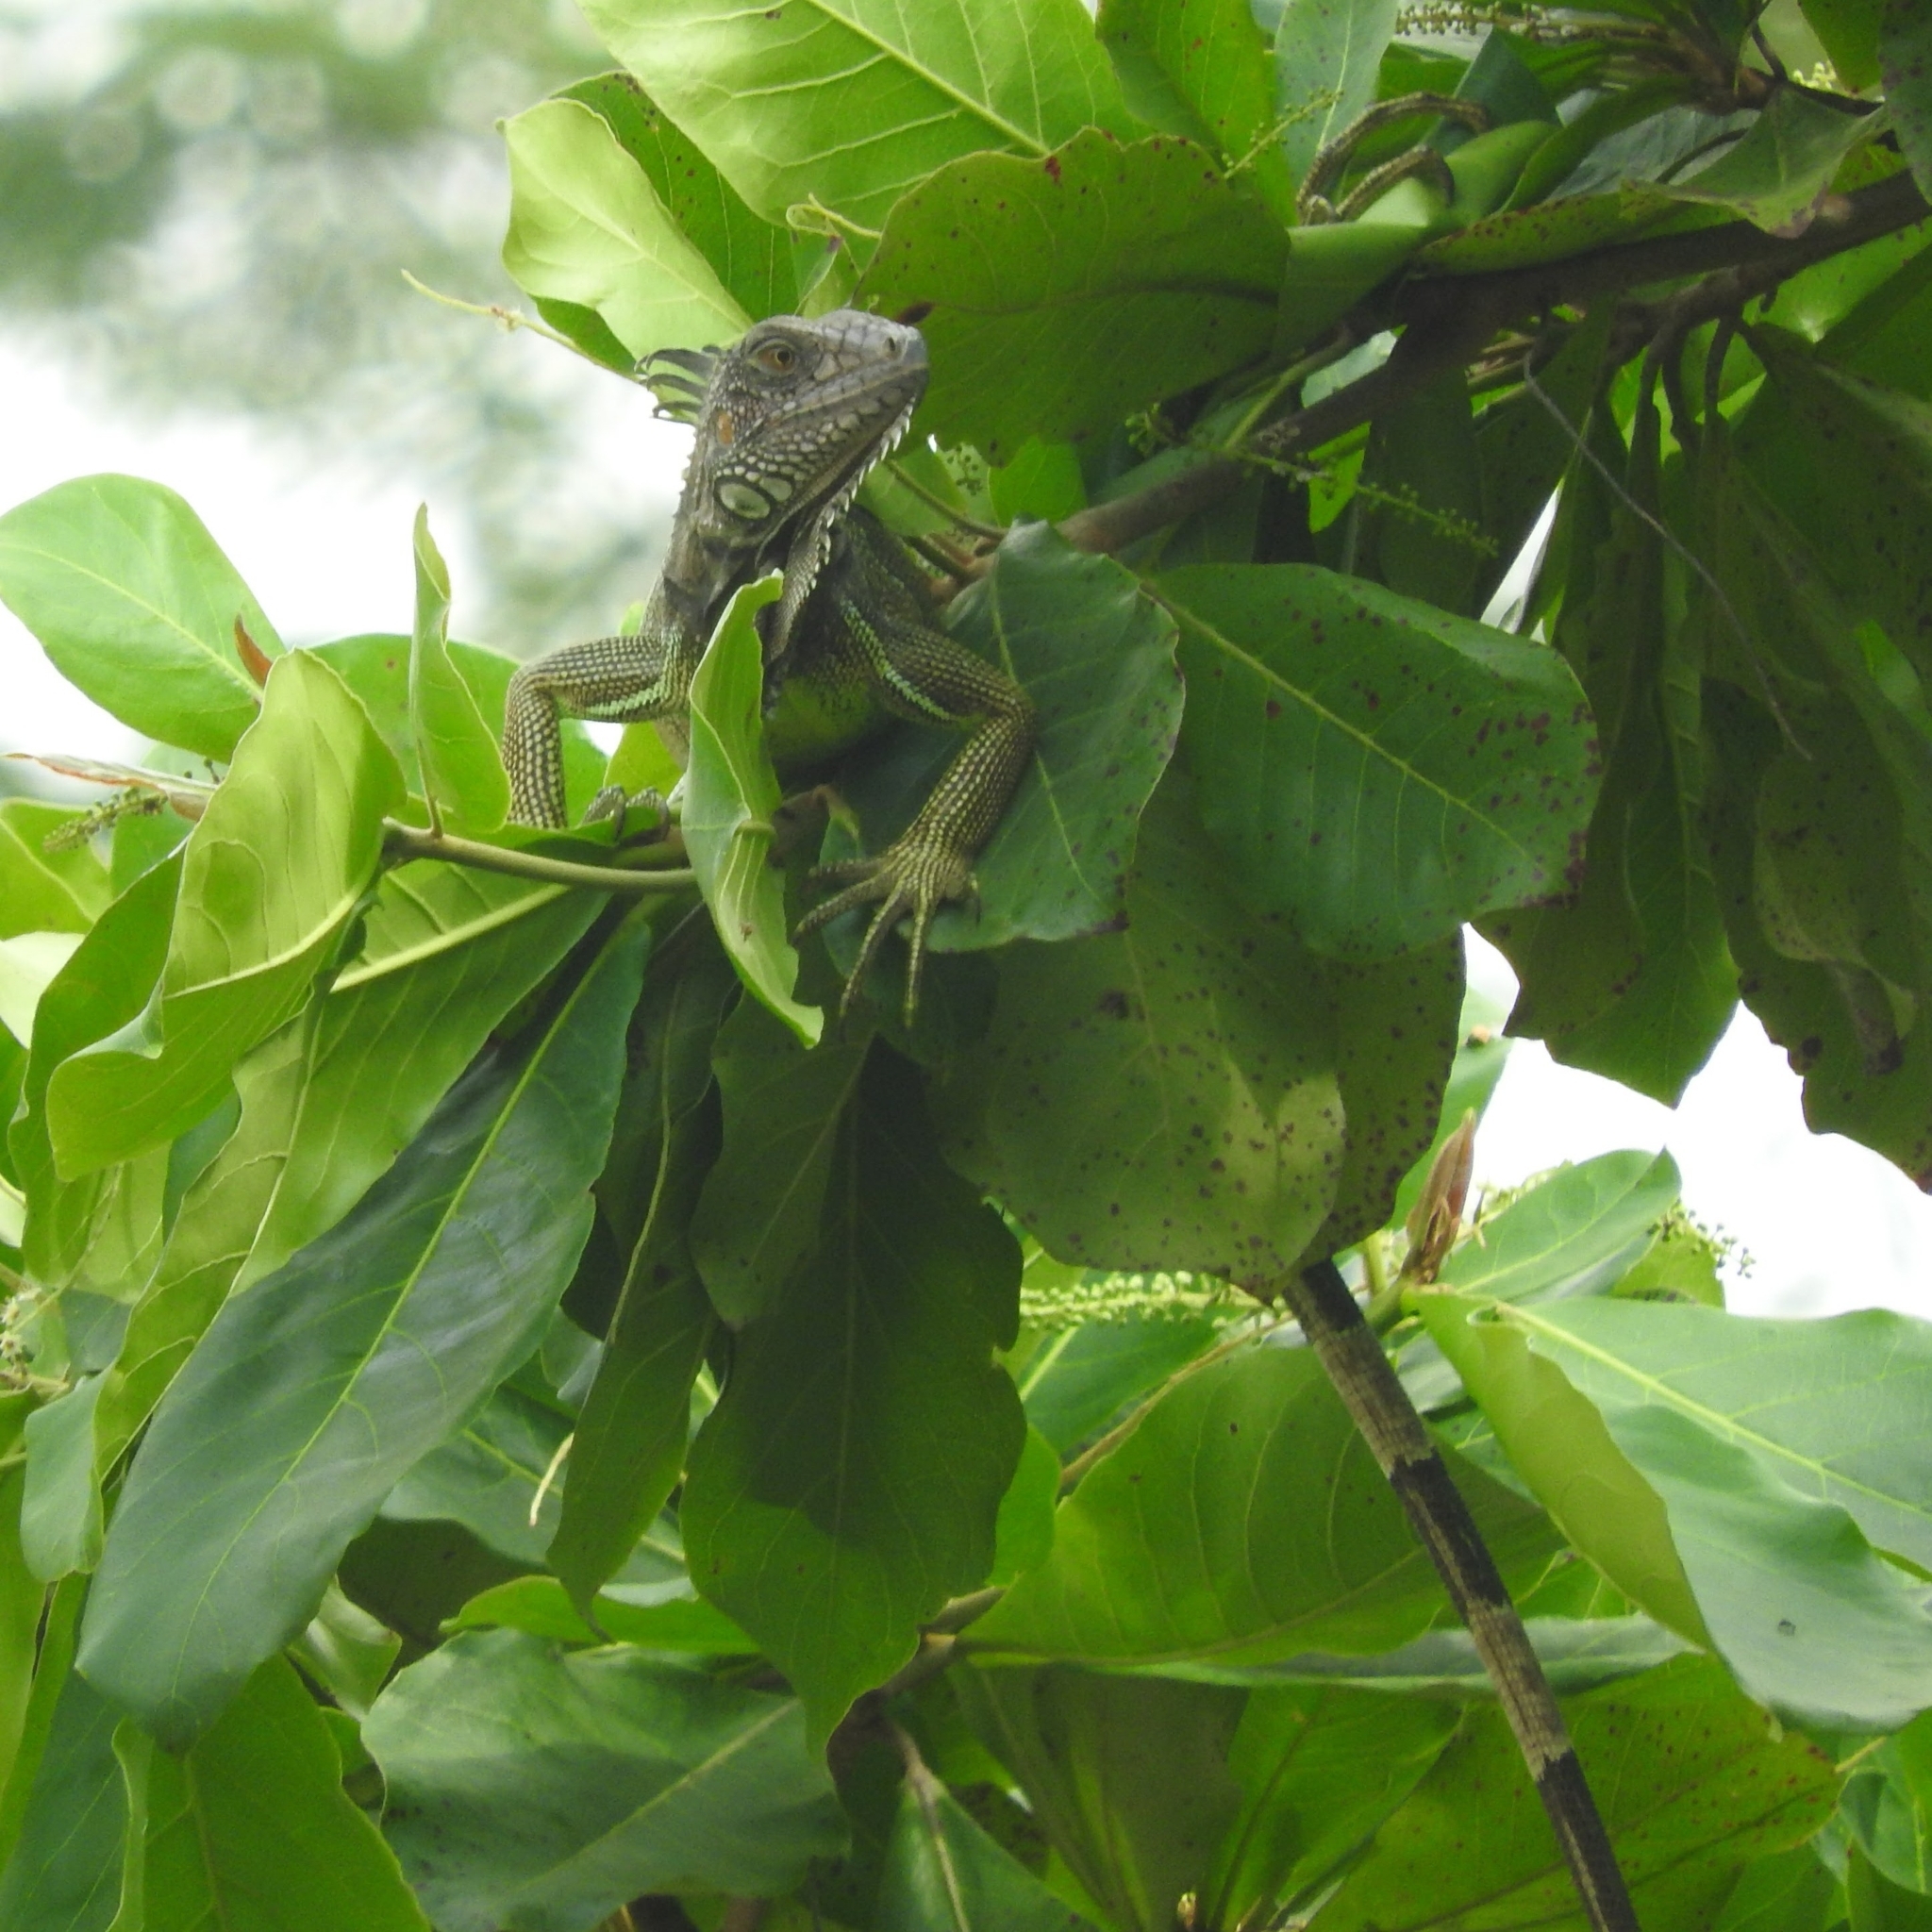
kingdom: Animalia
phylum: Chordata
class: Squamata
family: Iguanidae
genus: Iguana
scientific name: Iguana iguana
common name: Green iguana
